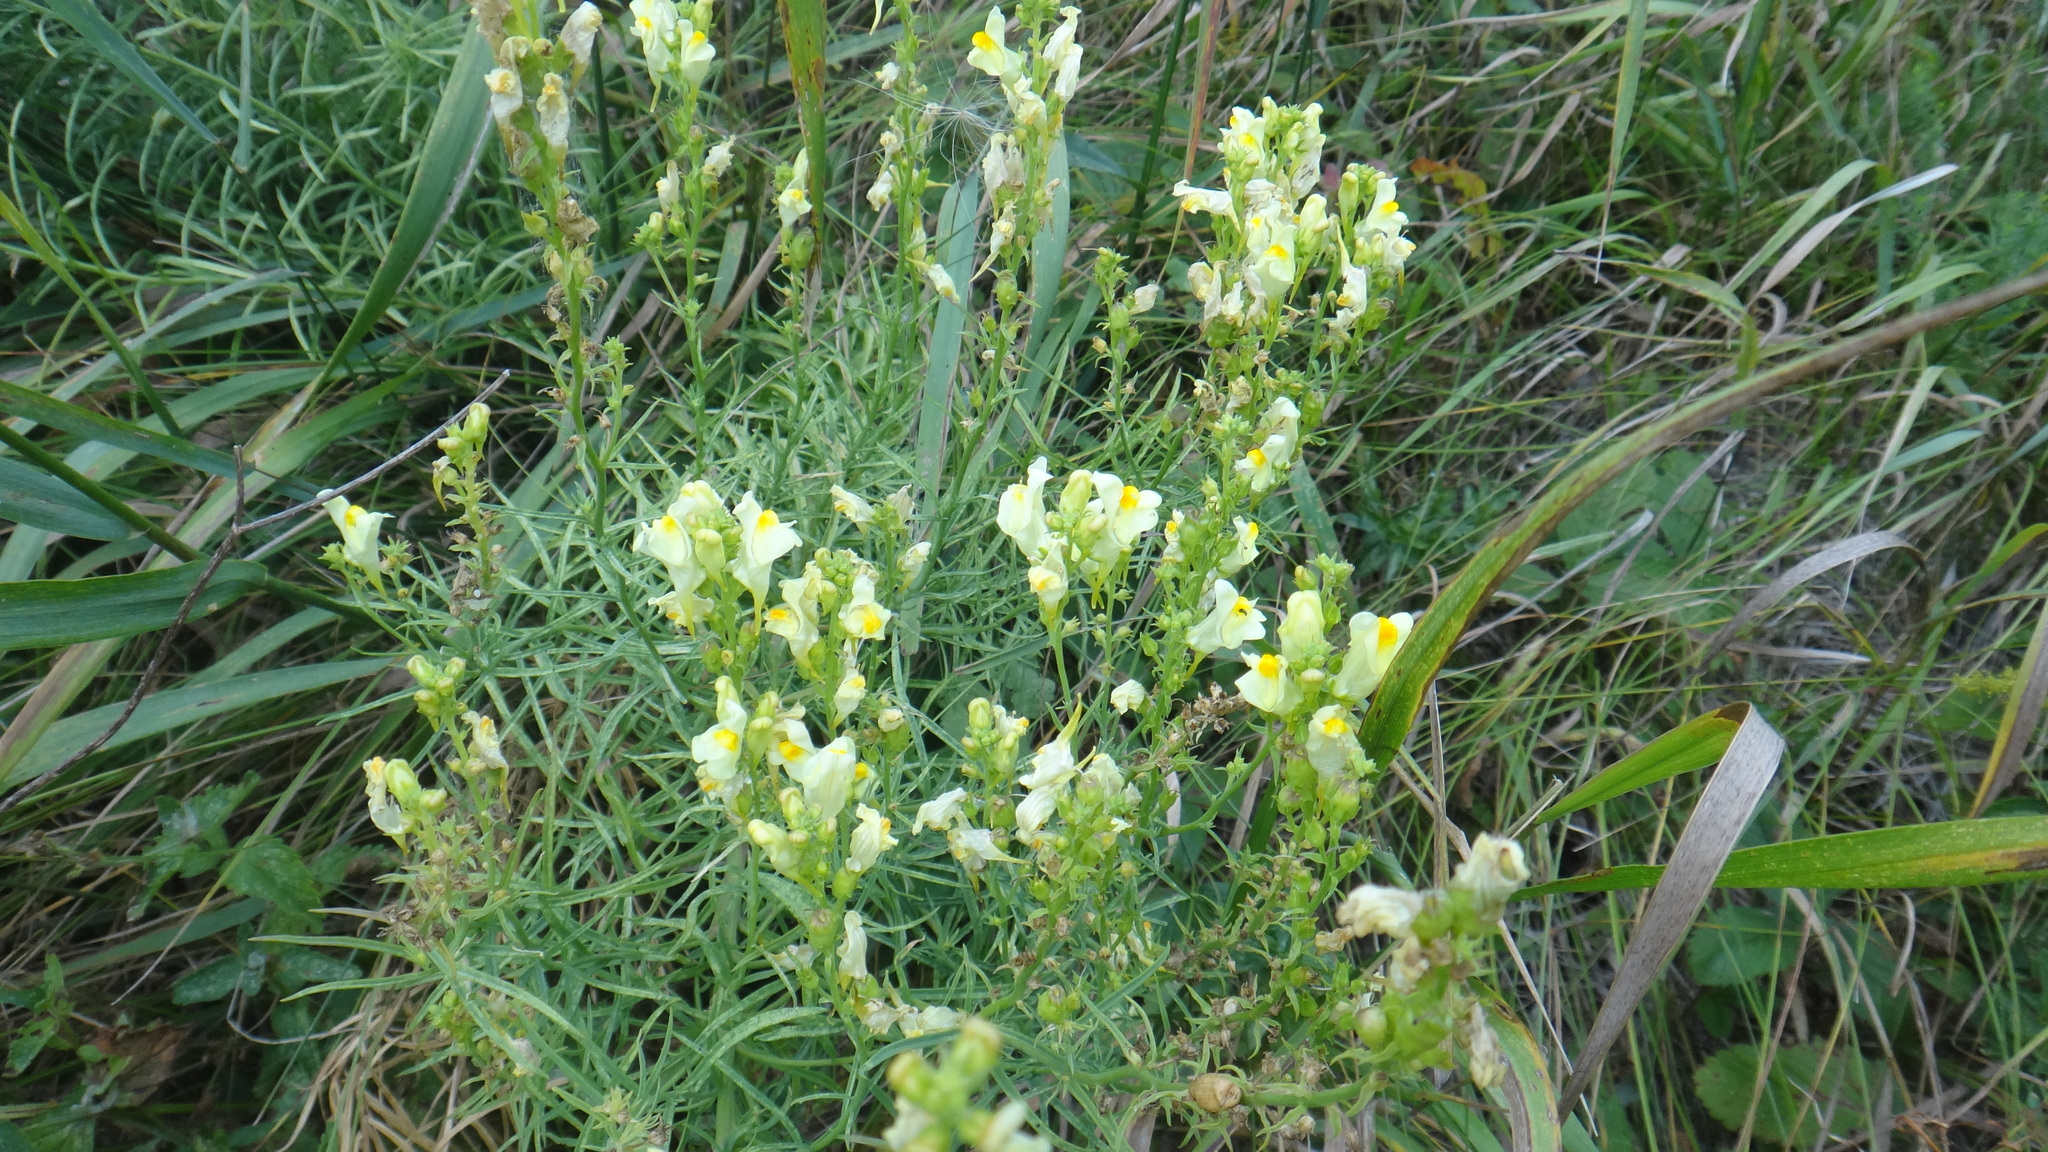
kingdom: Plantae
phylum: Tracheophyta
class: Magnoliopsida
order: Lamiales
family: Plantaginaceae
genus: Linaria
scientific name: Linaria vulgaris
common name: Butter and eggs
